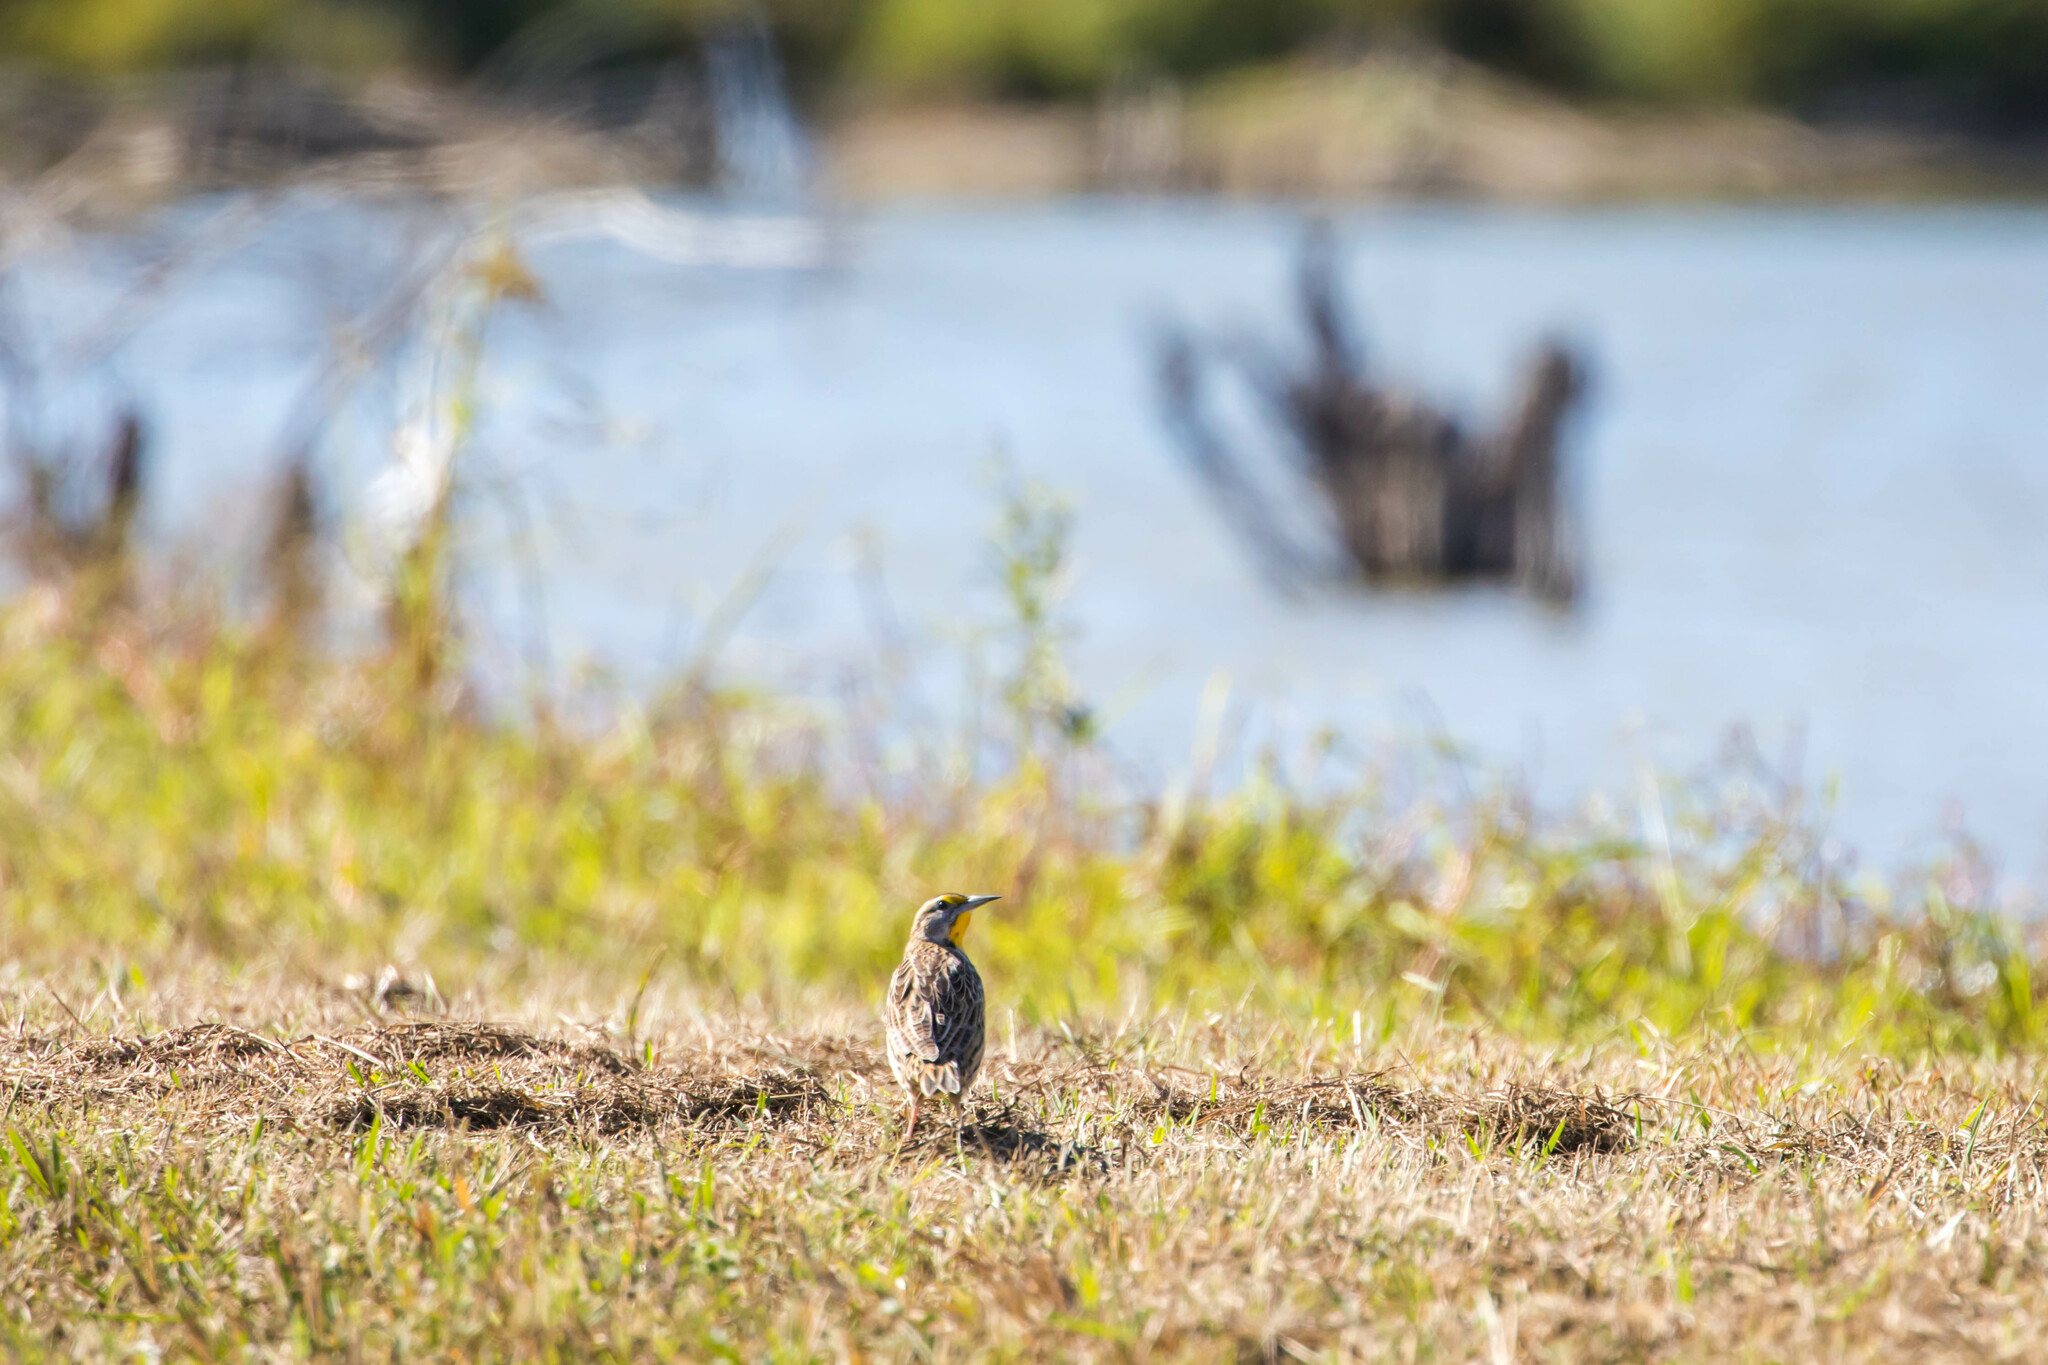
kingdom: Animalia
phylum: Chordata
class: Aves
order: Passeriformes
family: Icteridae
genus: Sturnella
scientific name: Sturnella magna
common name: Eastern meadowlark
